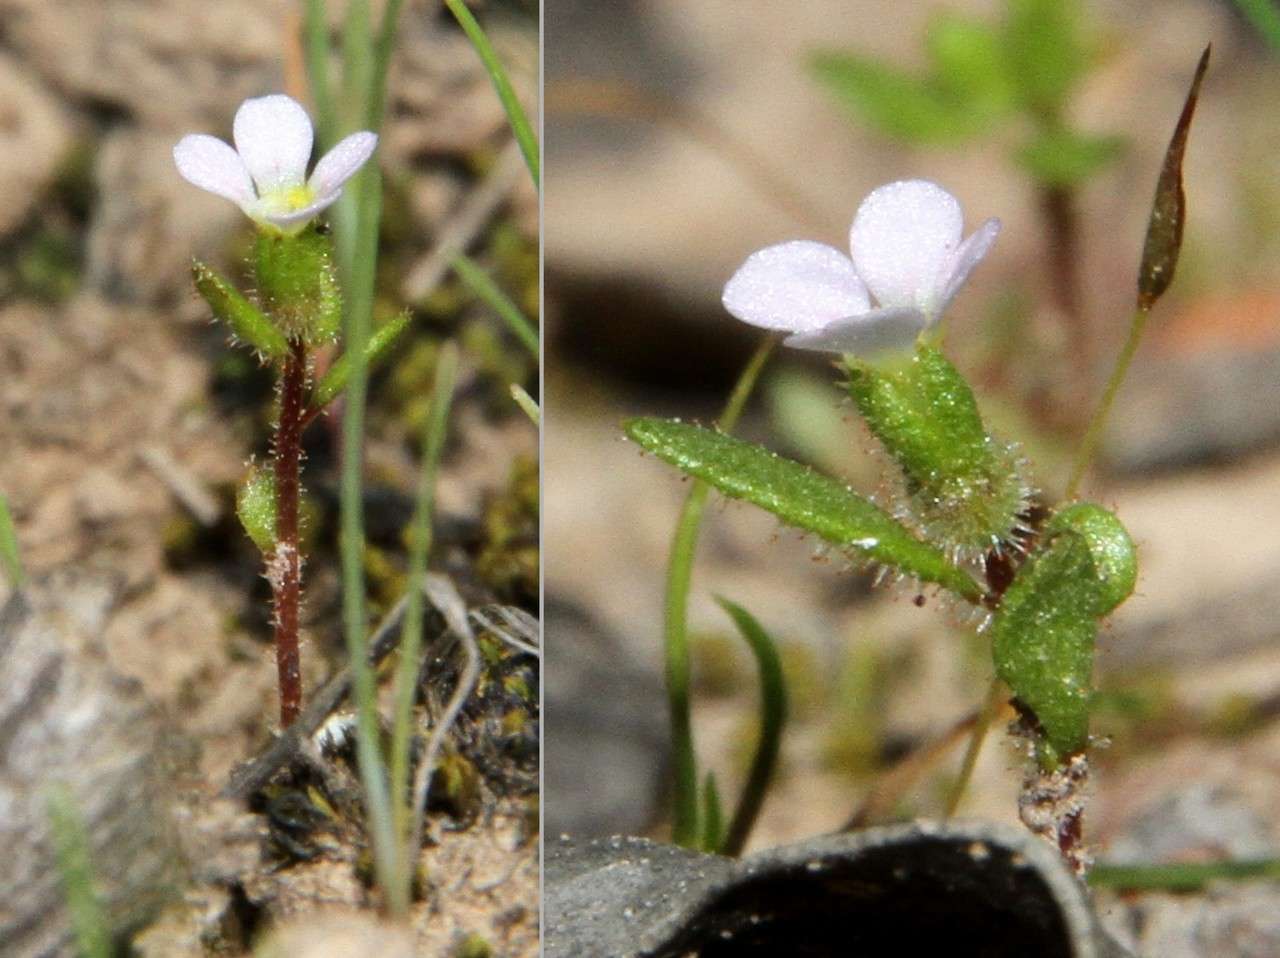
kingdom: Plantae
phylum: Tracheophyta
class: Magnoliopsida
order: Asterales
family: Stylidiaceae
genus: Levenhookia
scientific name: Levenhookia dubia
